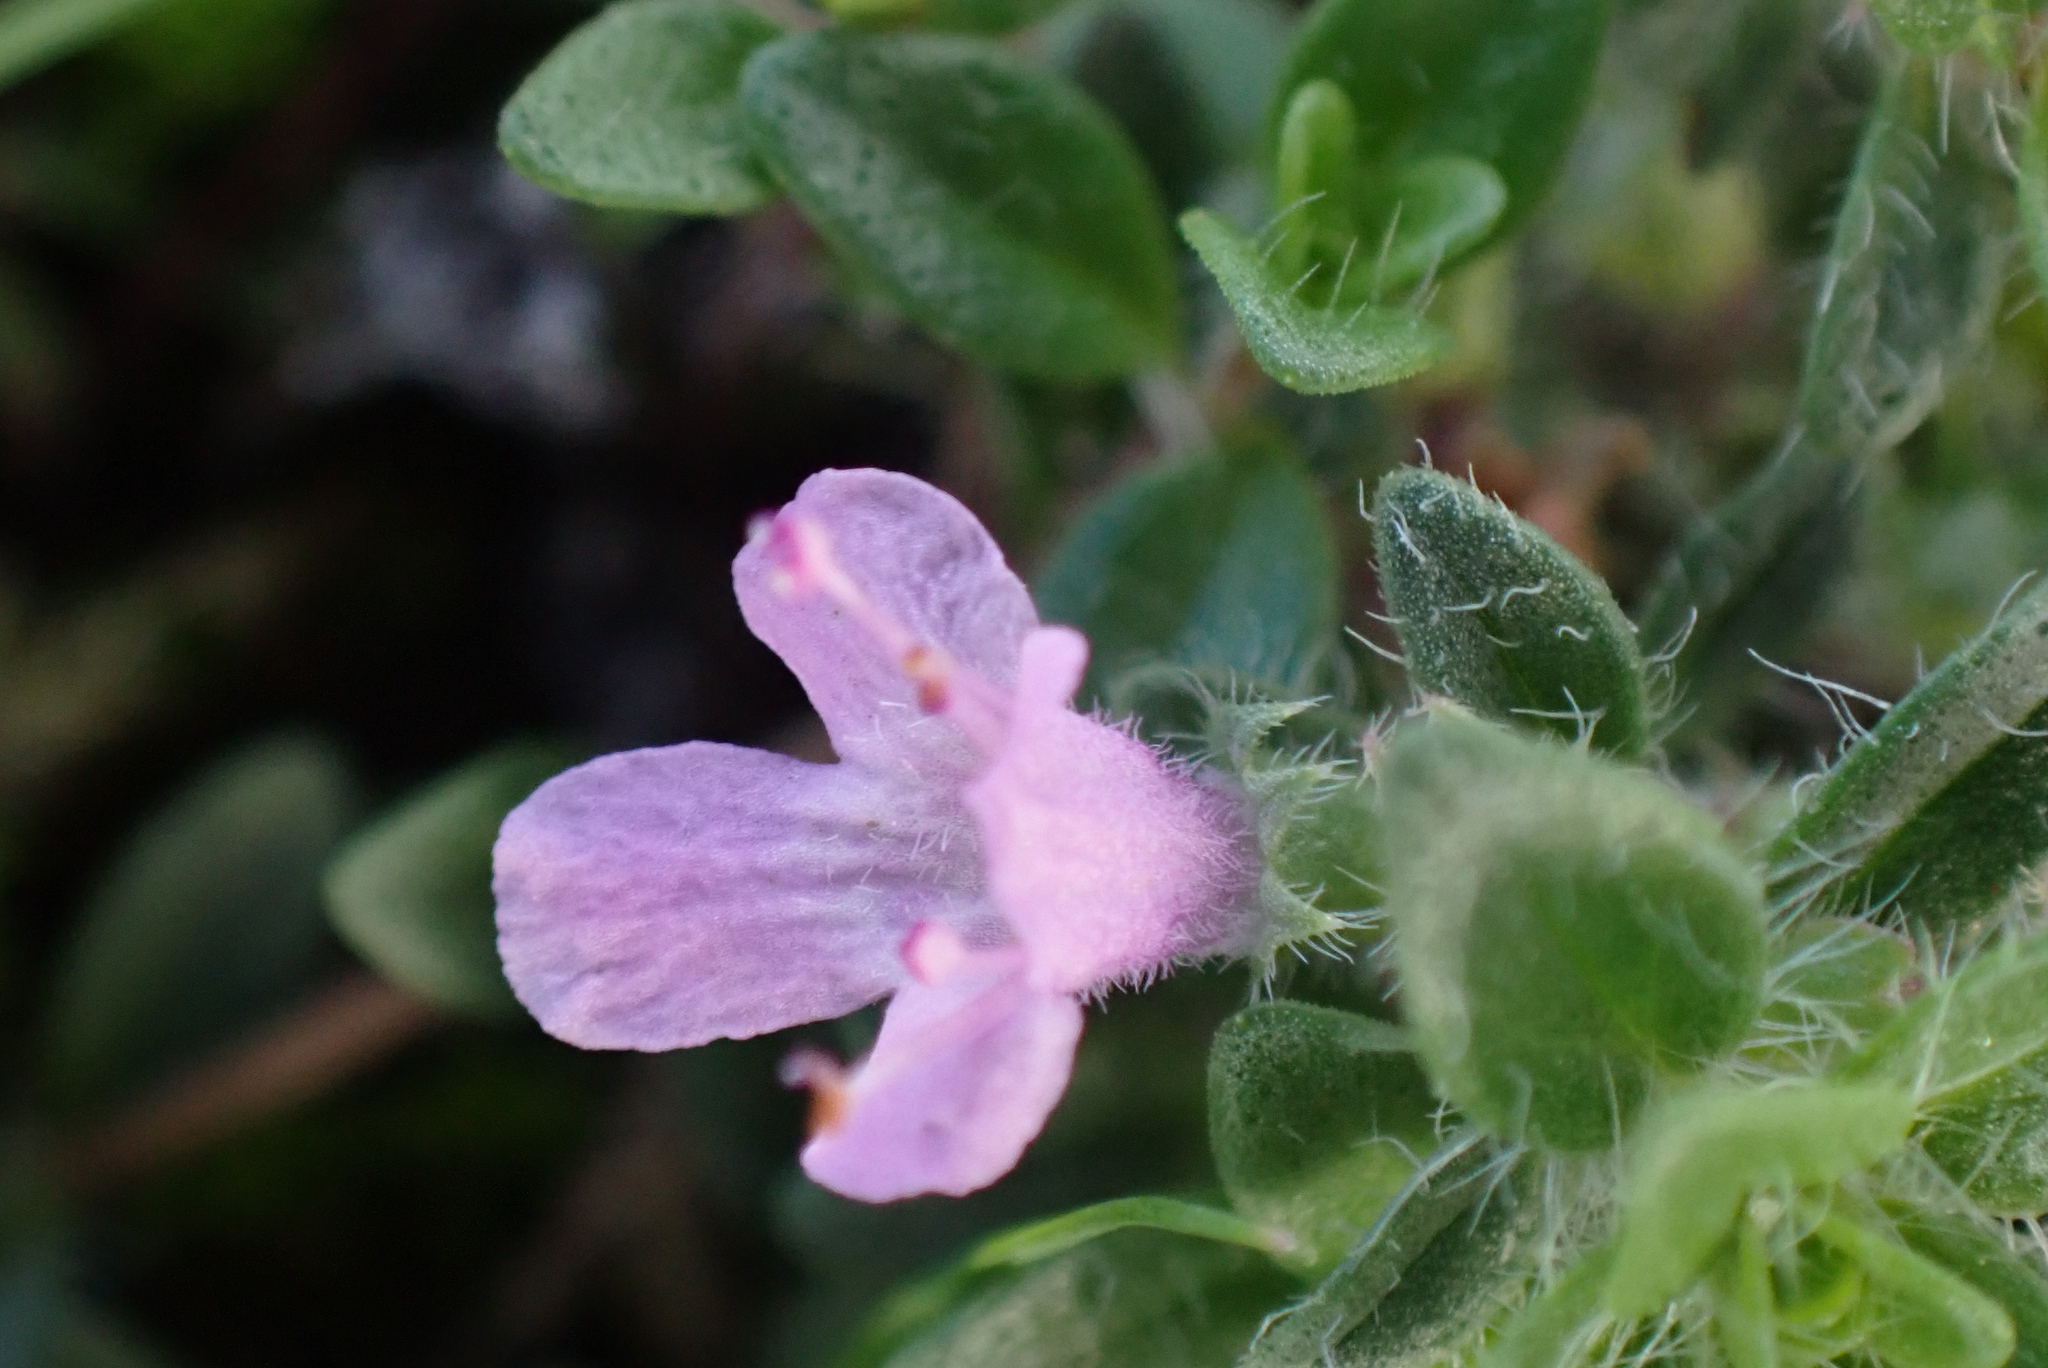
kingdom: Plantae
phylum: Tracheophyta
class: Magnoliopsida
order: Lamiales
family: Lamiaceae
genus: Thymus
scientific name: Thymus praecox
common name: Wild thyme
